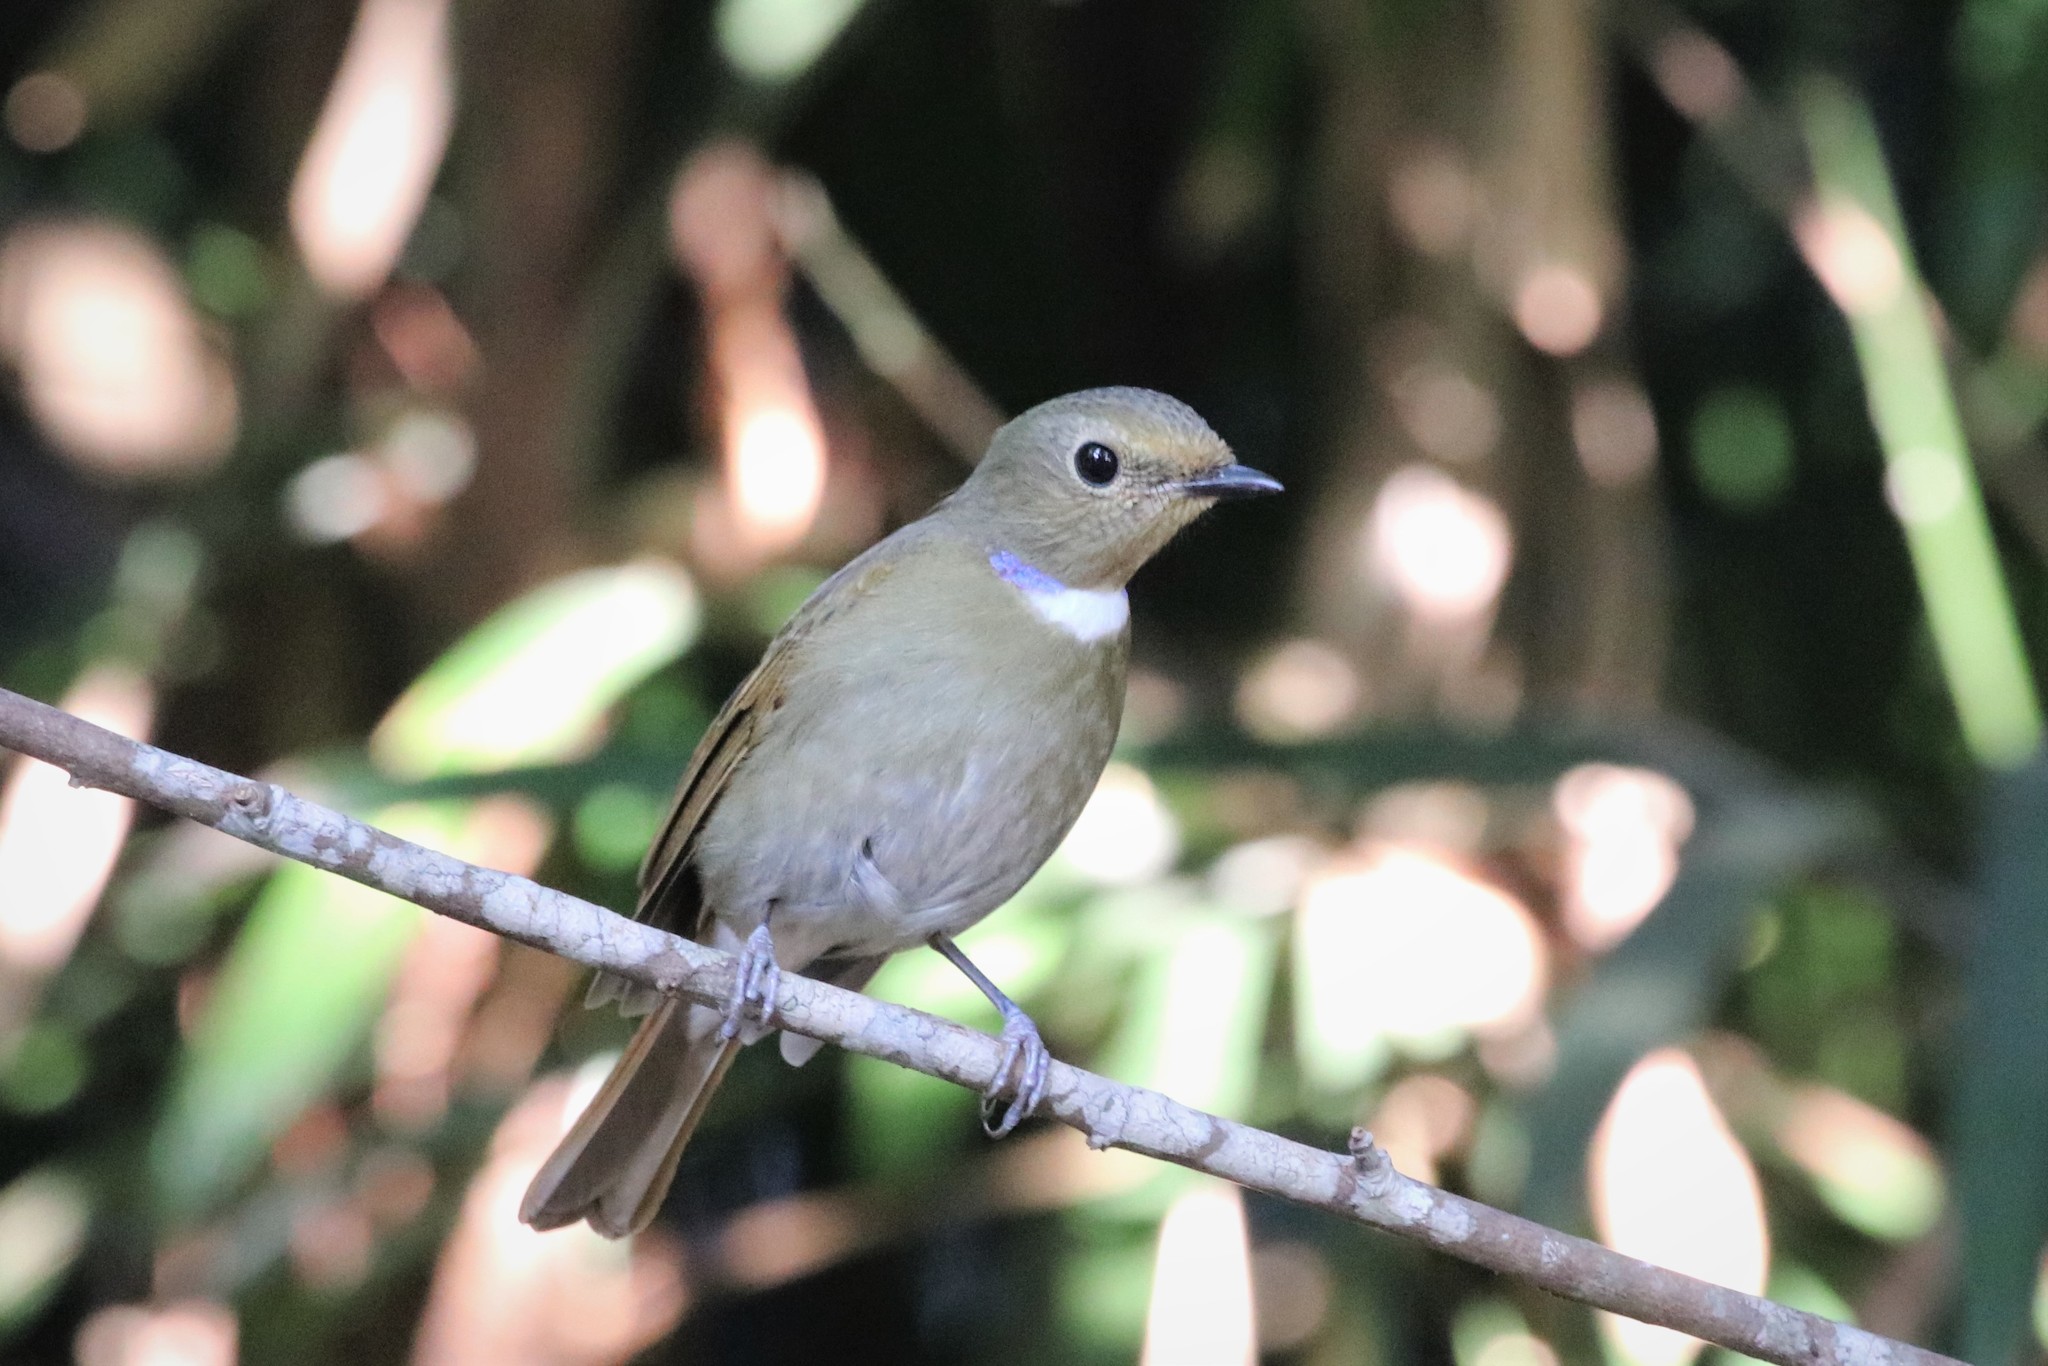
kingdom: Animalia
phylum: Chordata
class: Aves
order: Passeriformes
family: Muscicapidae
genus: Niltava
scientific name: Niltava sundara
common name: Rufous-bellied niltava
